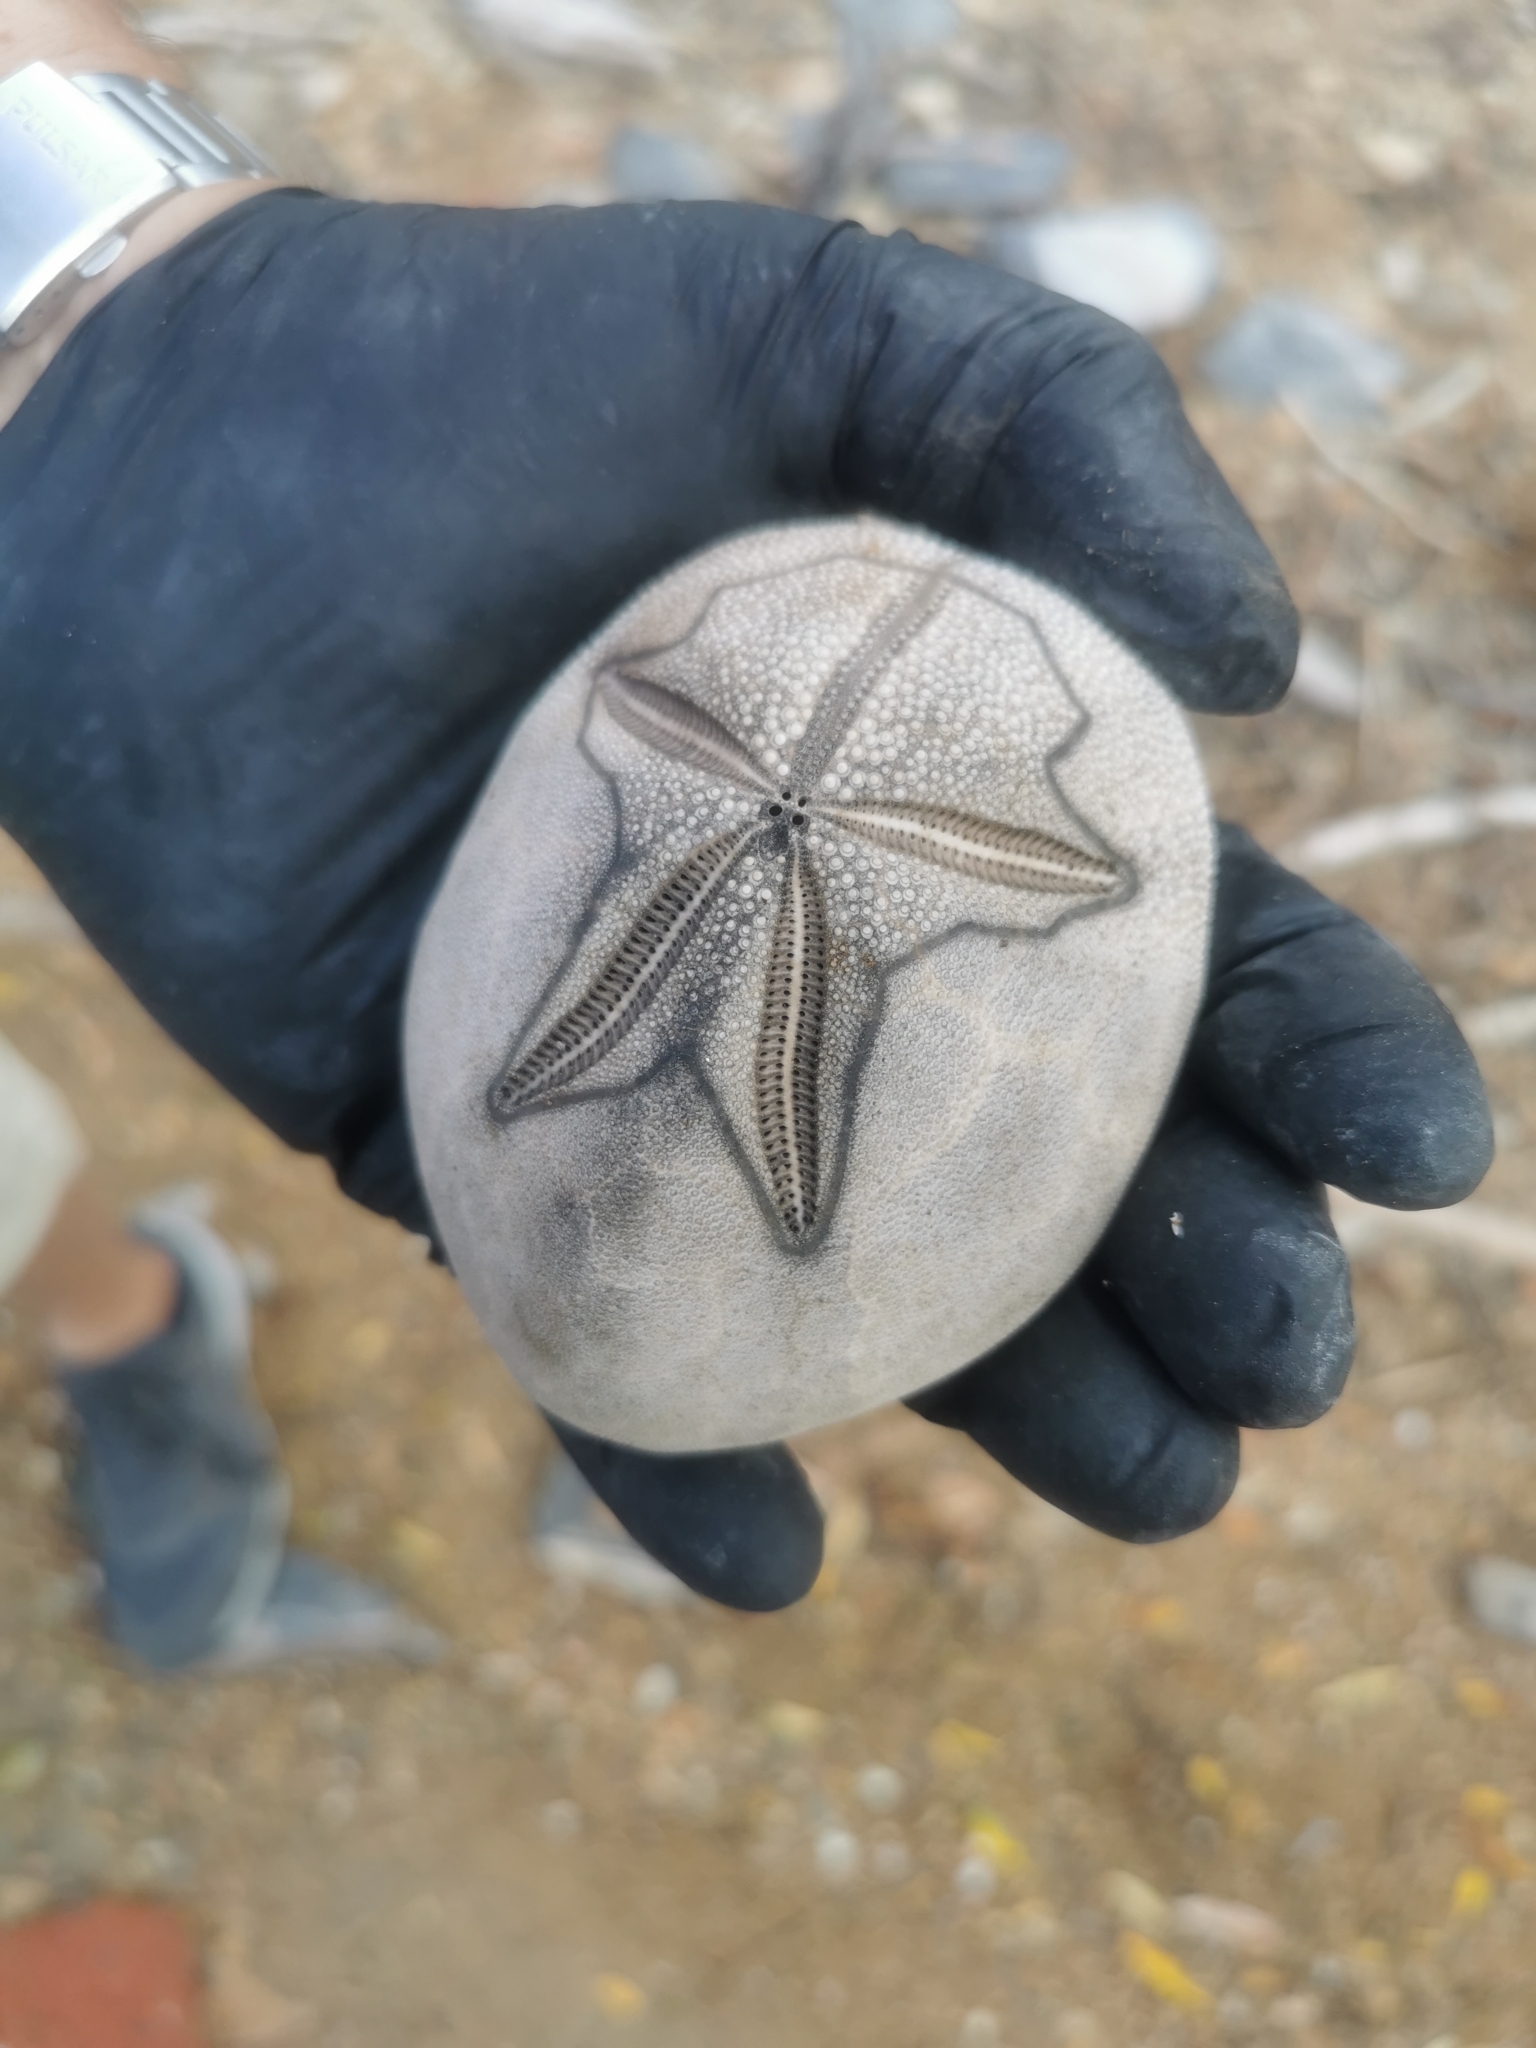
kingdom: Animalia
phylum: Echinodermata
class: Echinoidea
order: Spatangoida
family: Brissidae
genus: Brissus
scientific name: Brissus unicolor
